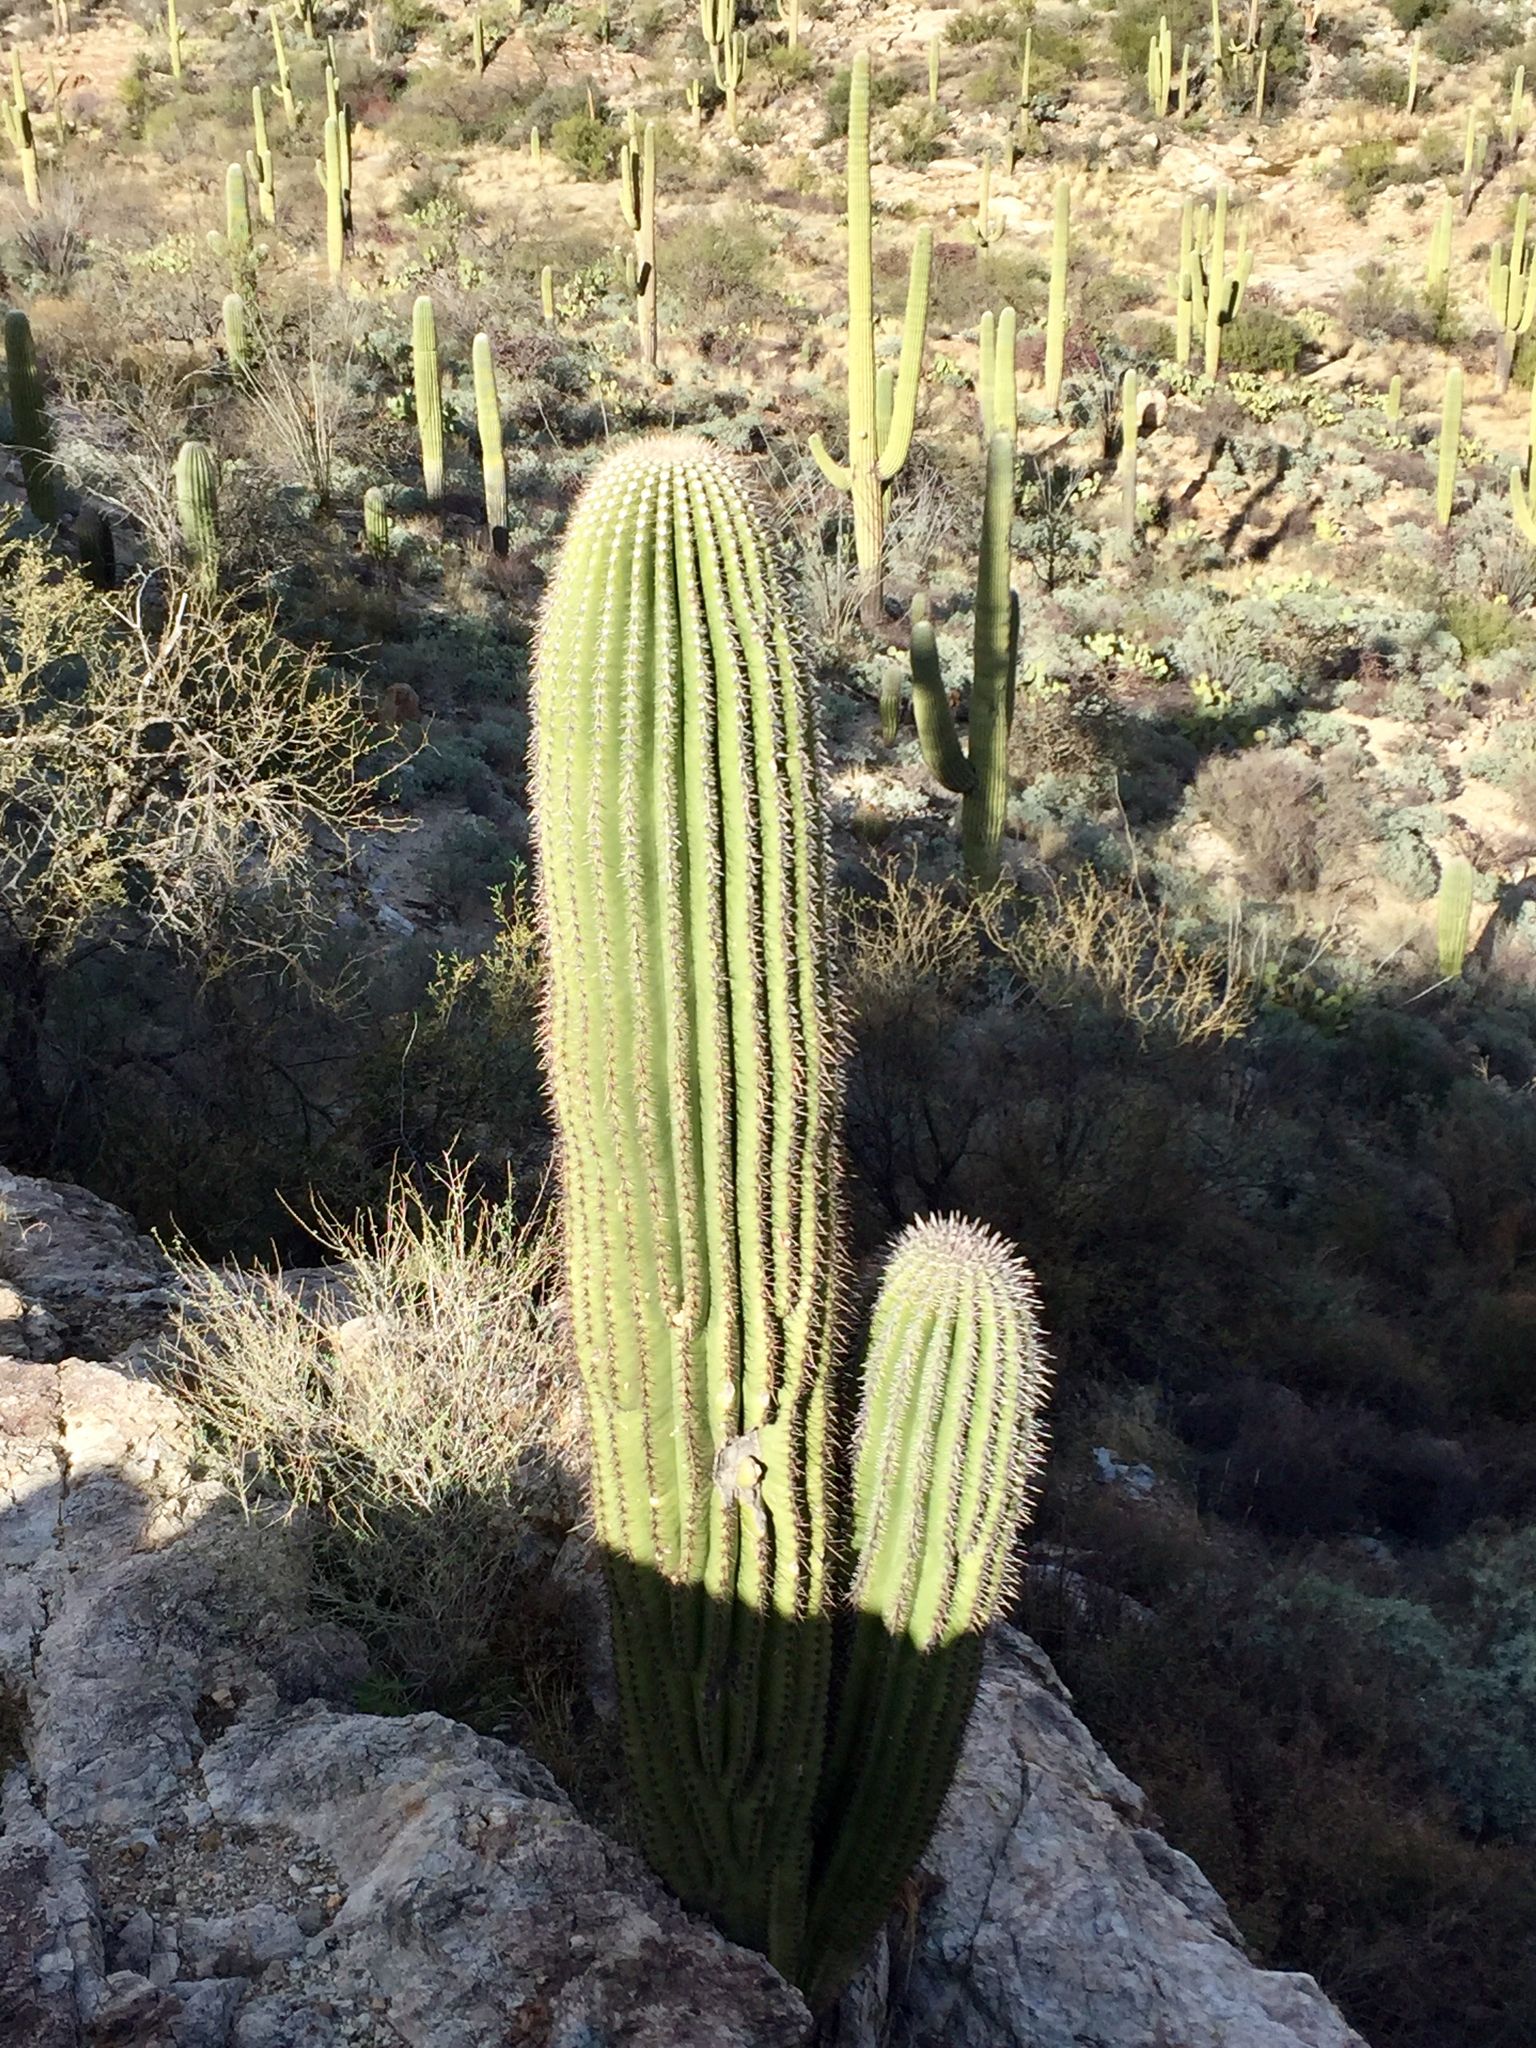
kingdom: Plantae
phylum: Tracheophyta
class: Magnoliopsida
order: Caryophyllales
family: Cactaceae
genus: Carnegiea
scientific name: Carnegiea gigantea
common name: Saguaro
